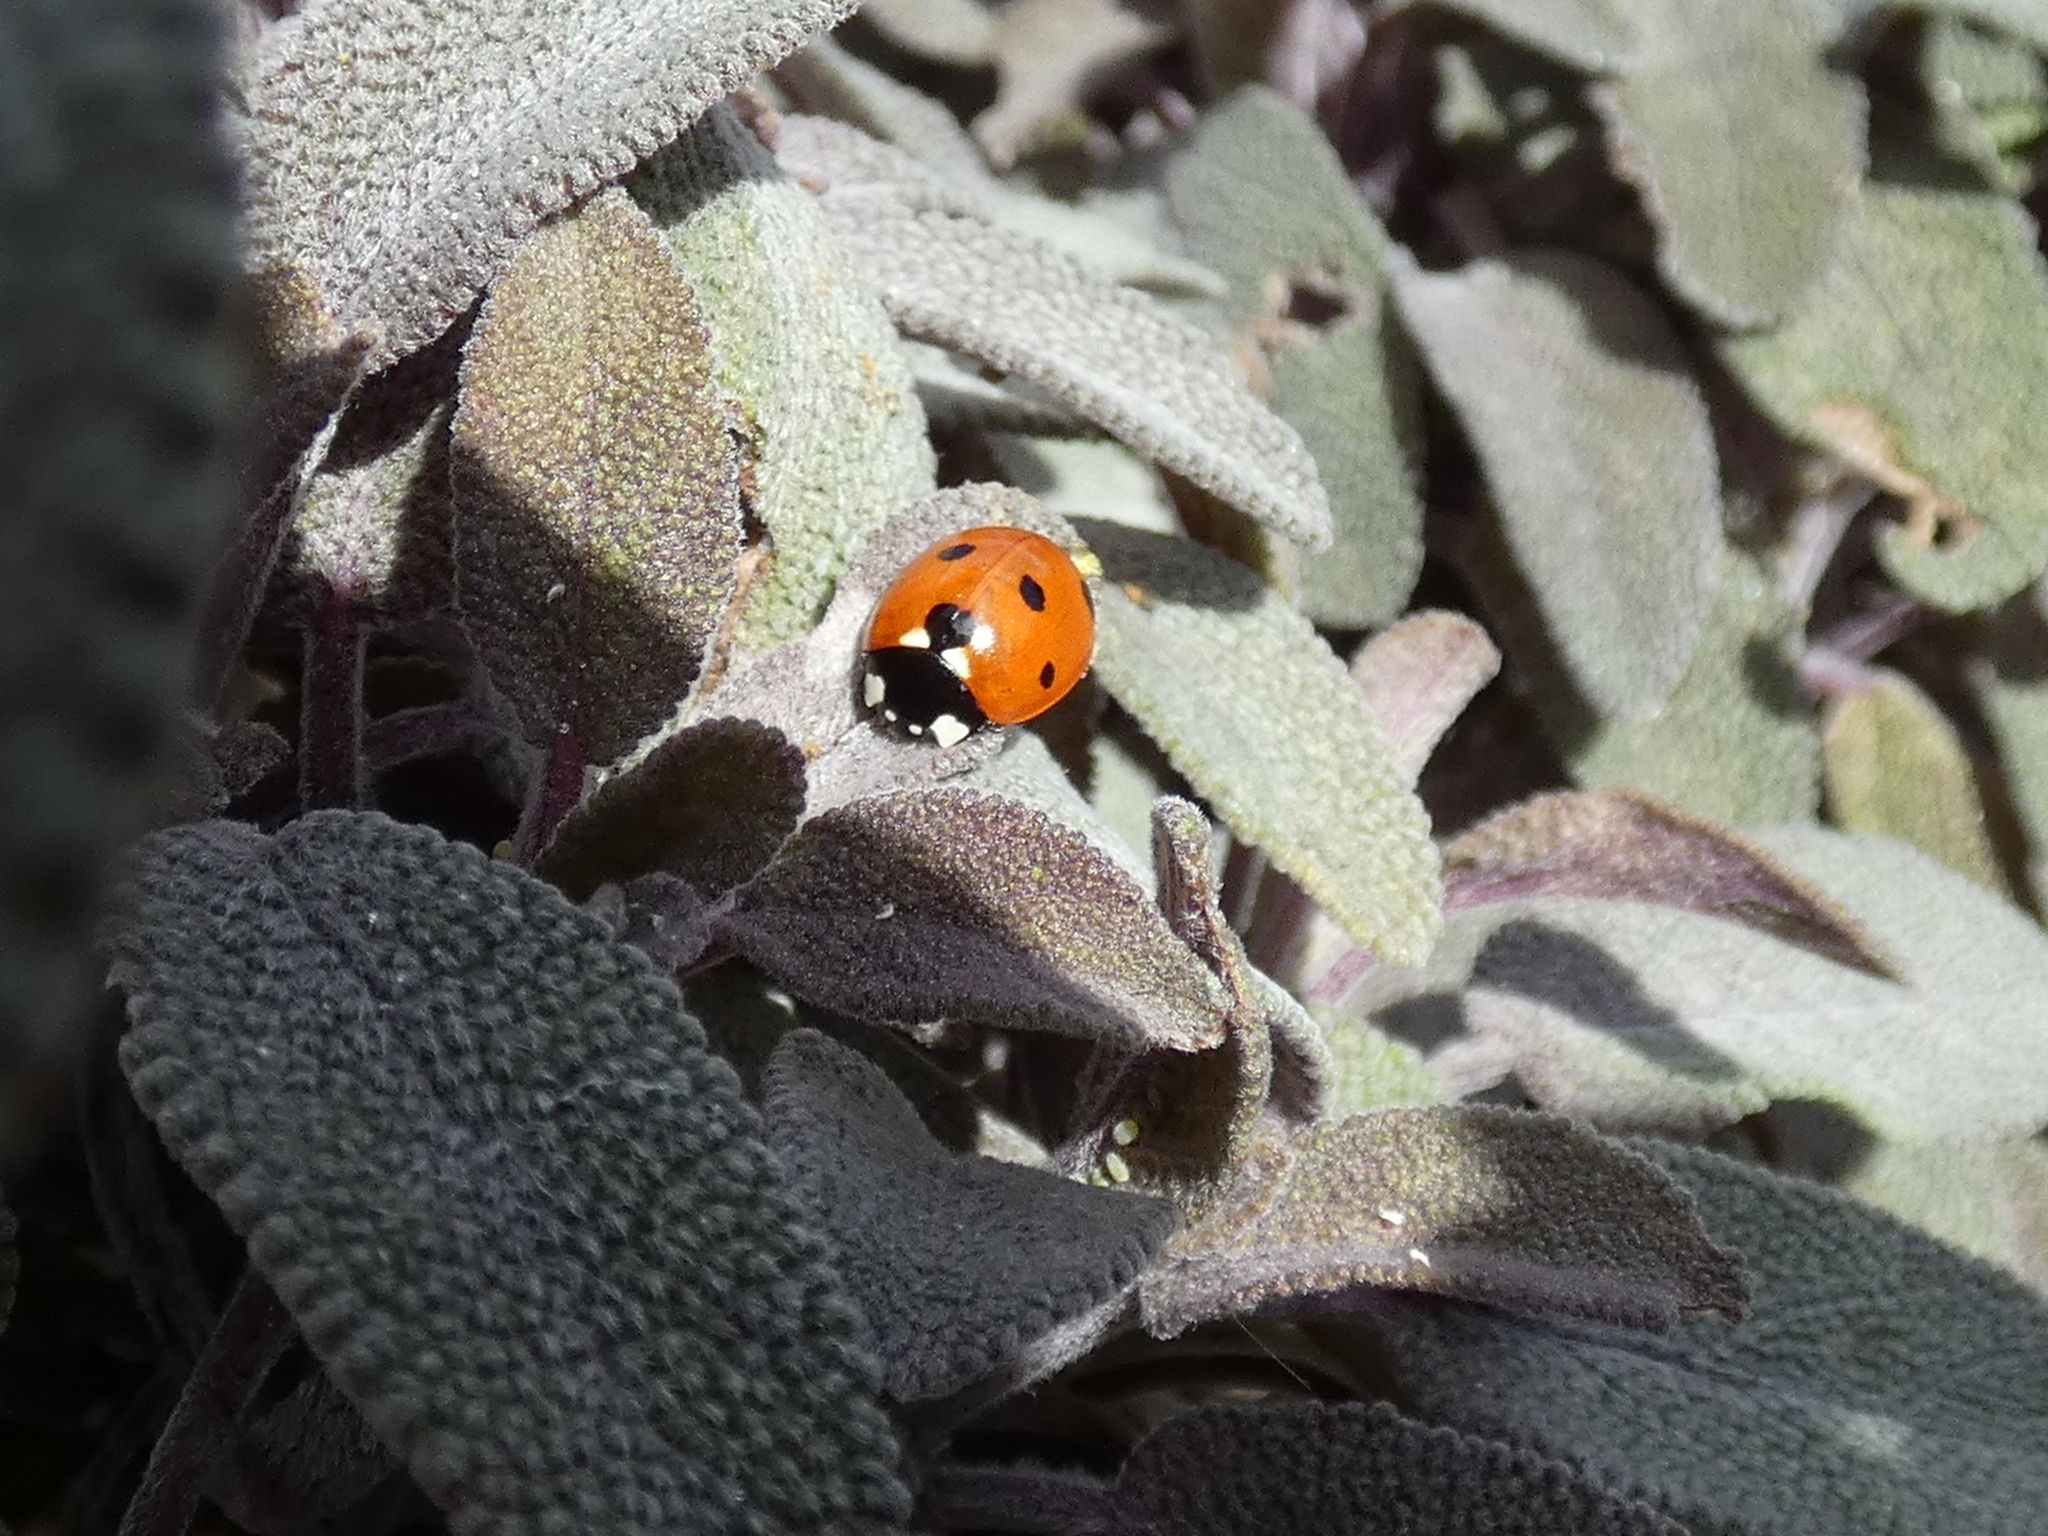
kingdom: Animalia
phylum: Arthropoda
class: Insecta
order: Coleoptera
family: Coccinellidae
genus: Coccinella
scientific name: Coccinella septempunctata
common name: Sevenspotted lady beetle
